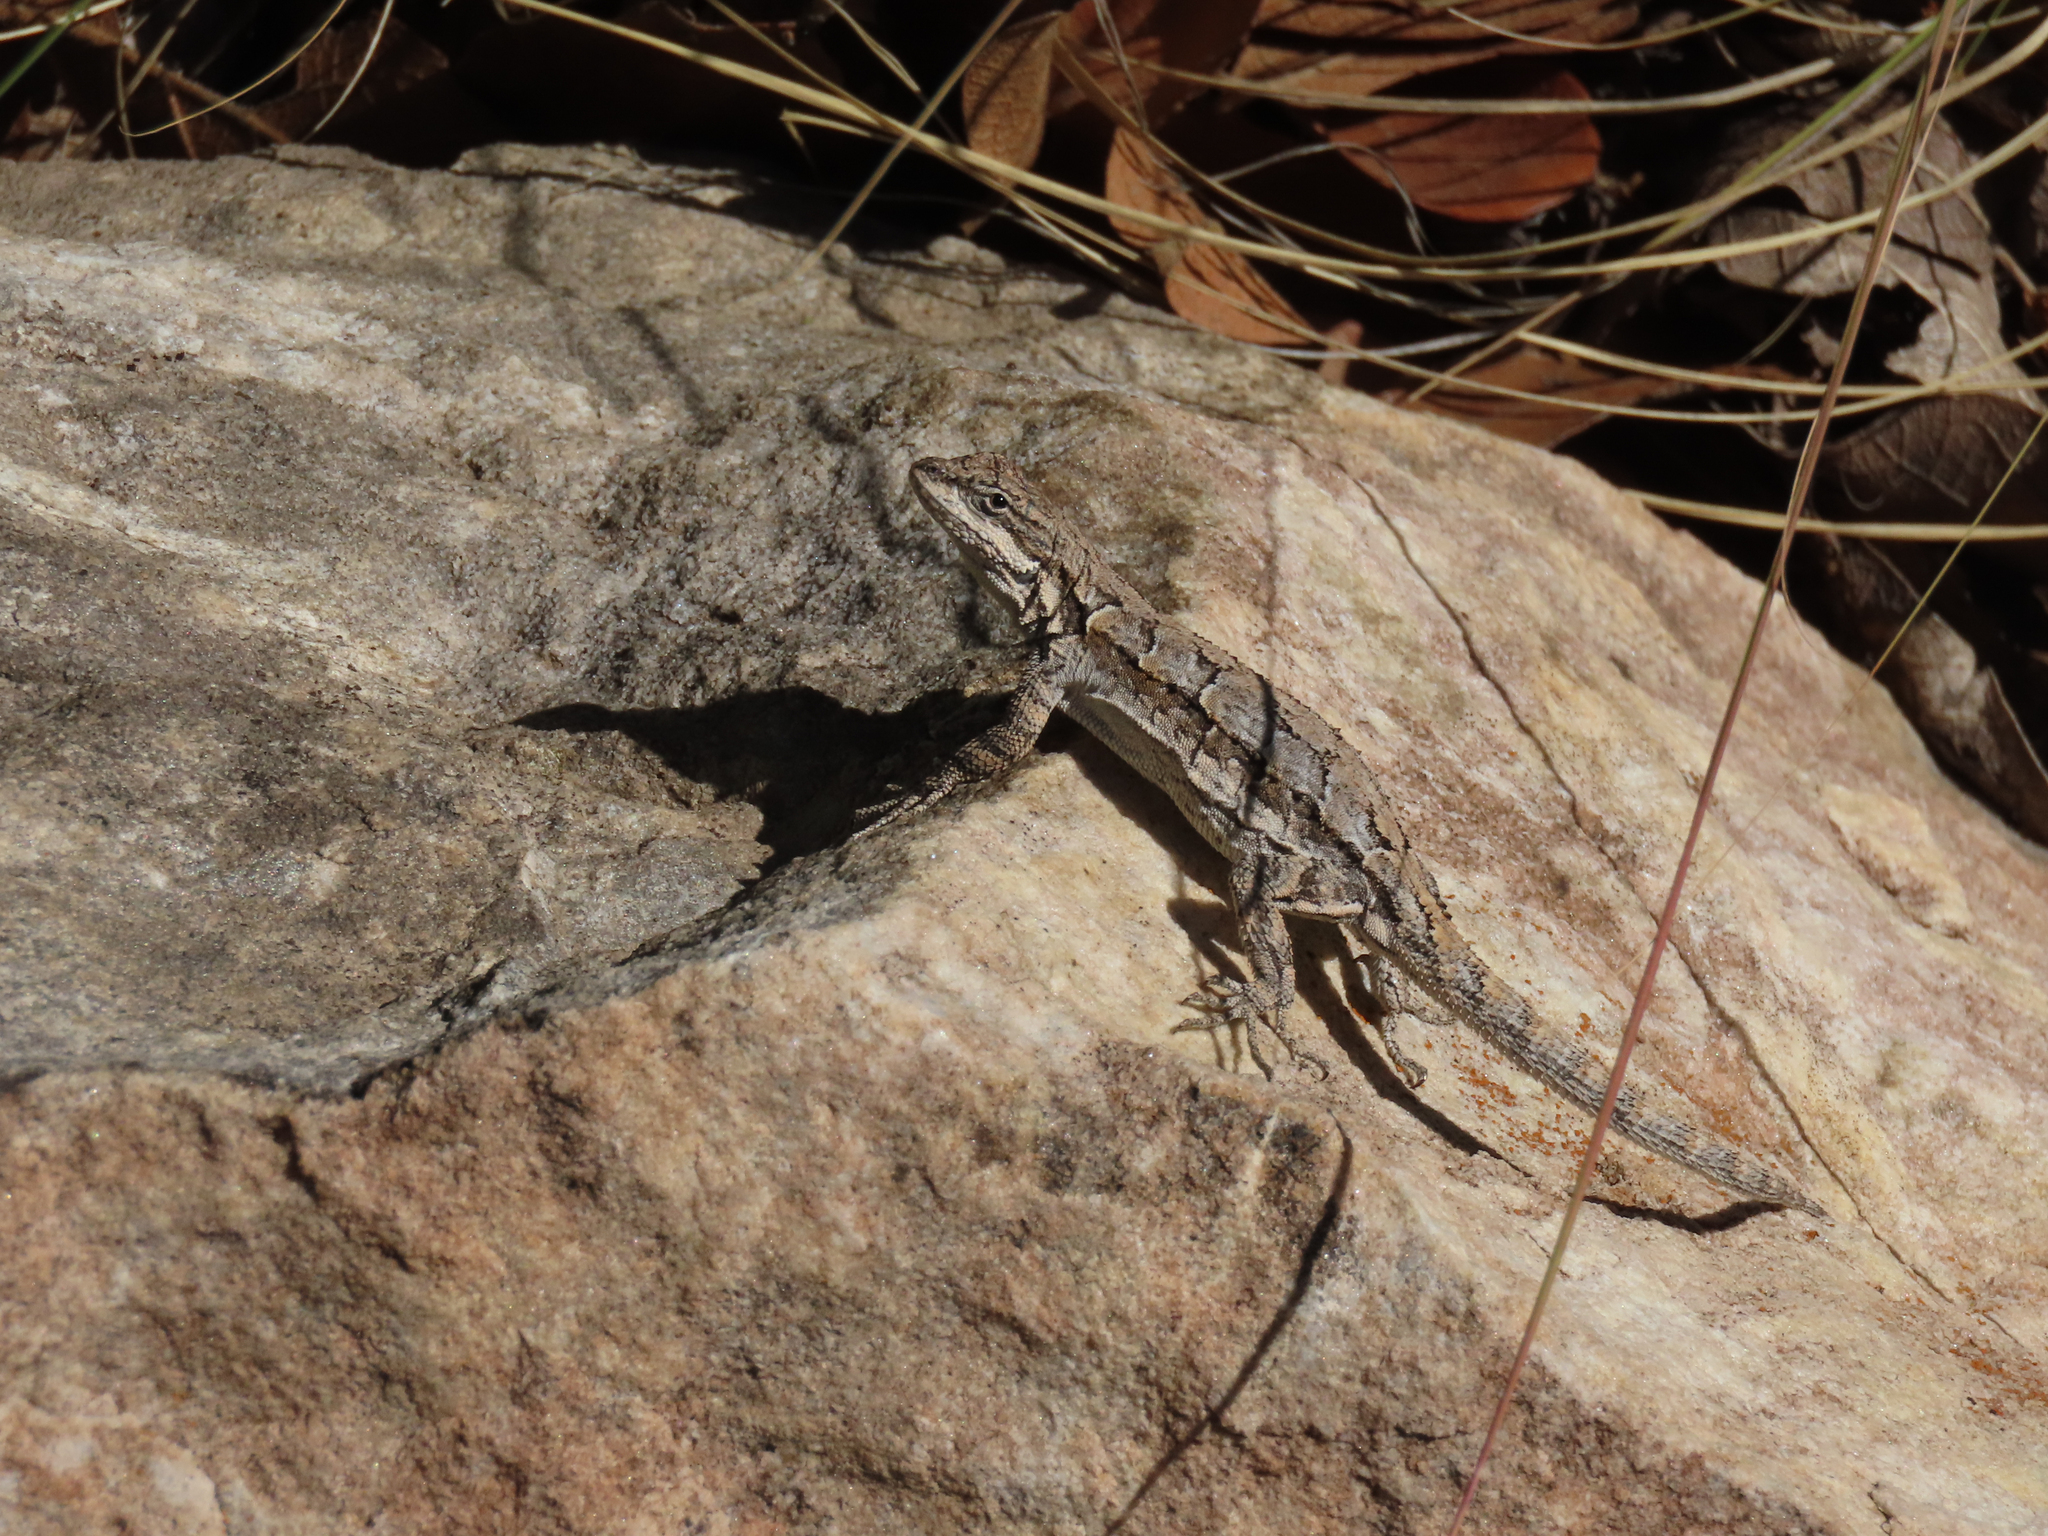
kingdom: Animalia
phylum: Chordata
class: Squamata
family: Phrynosomatidae
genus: Urosaurus
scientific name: Urosaurus ornatus
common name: Ornate tree lizard
